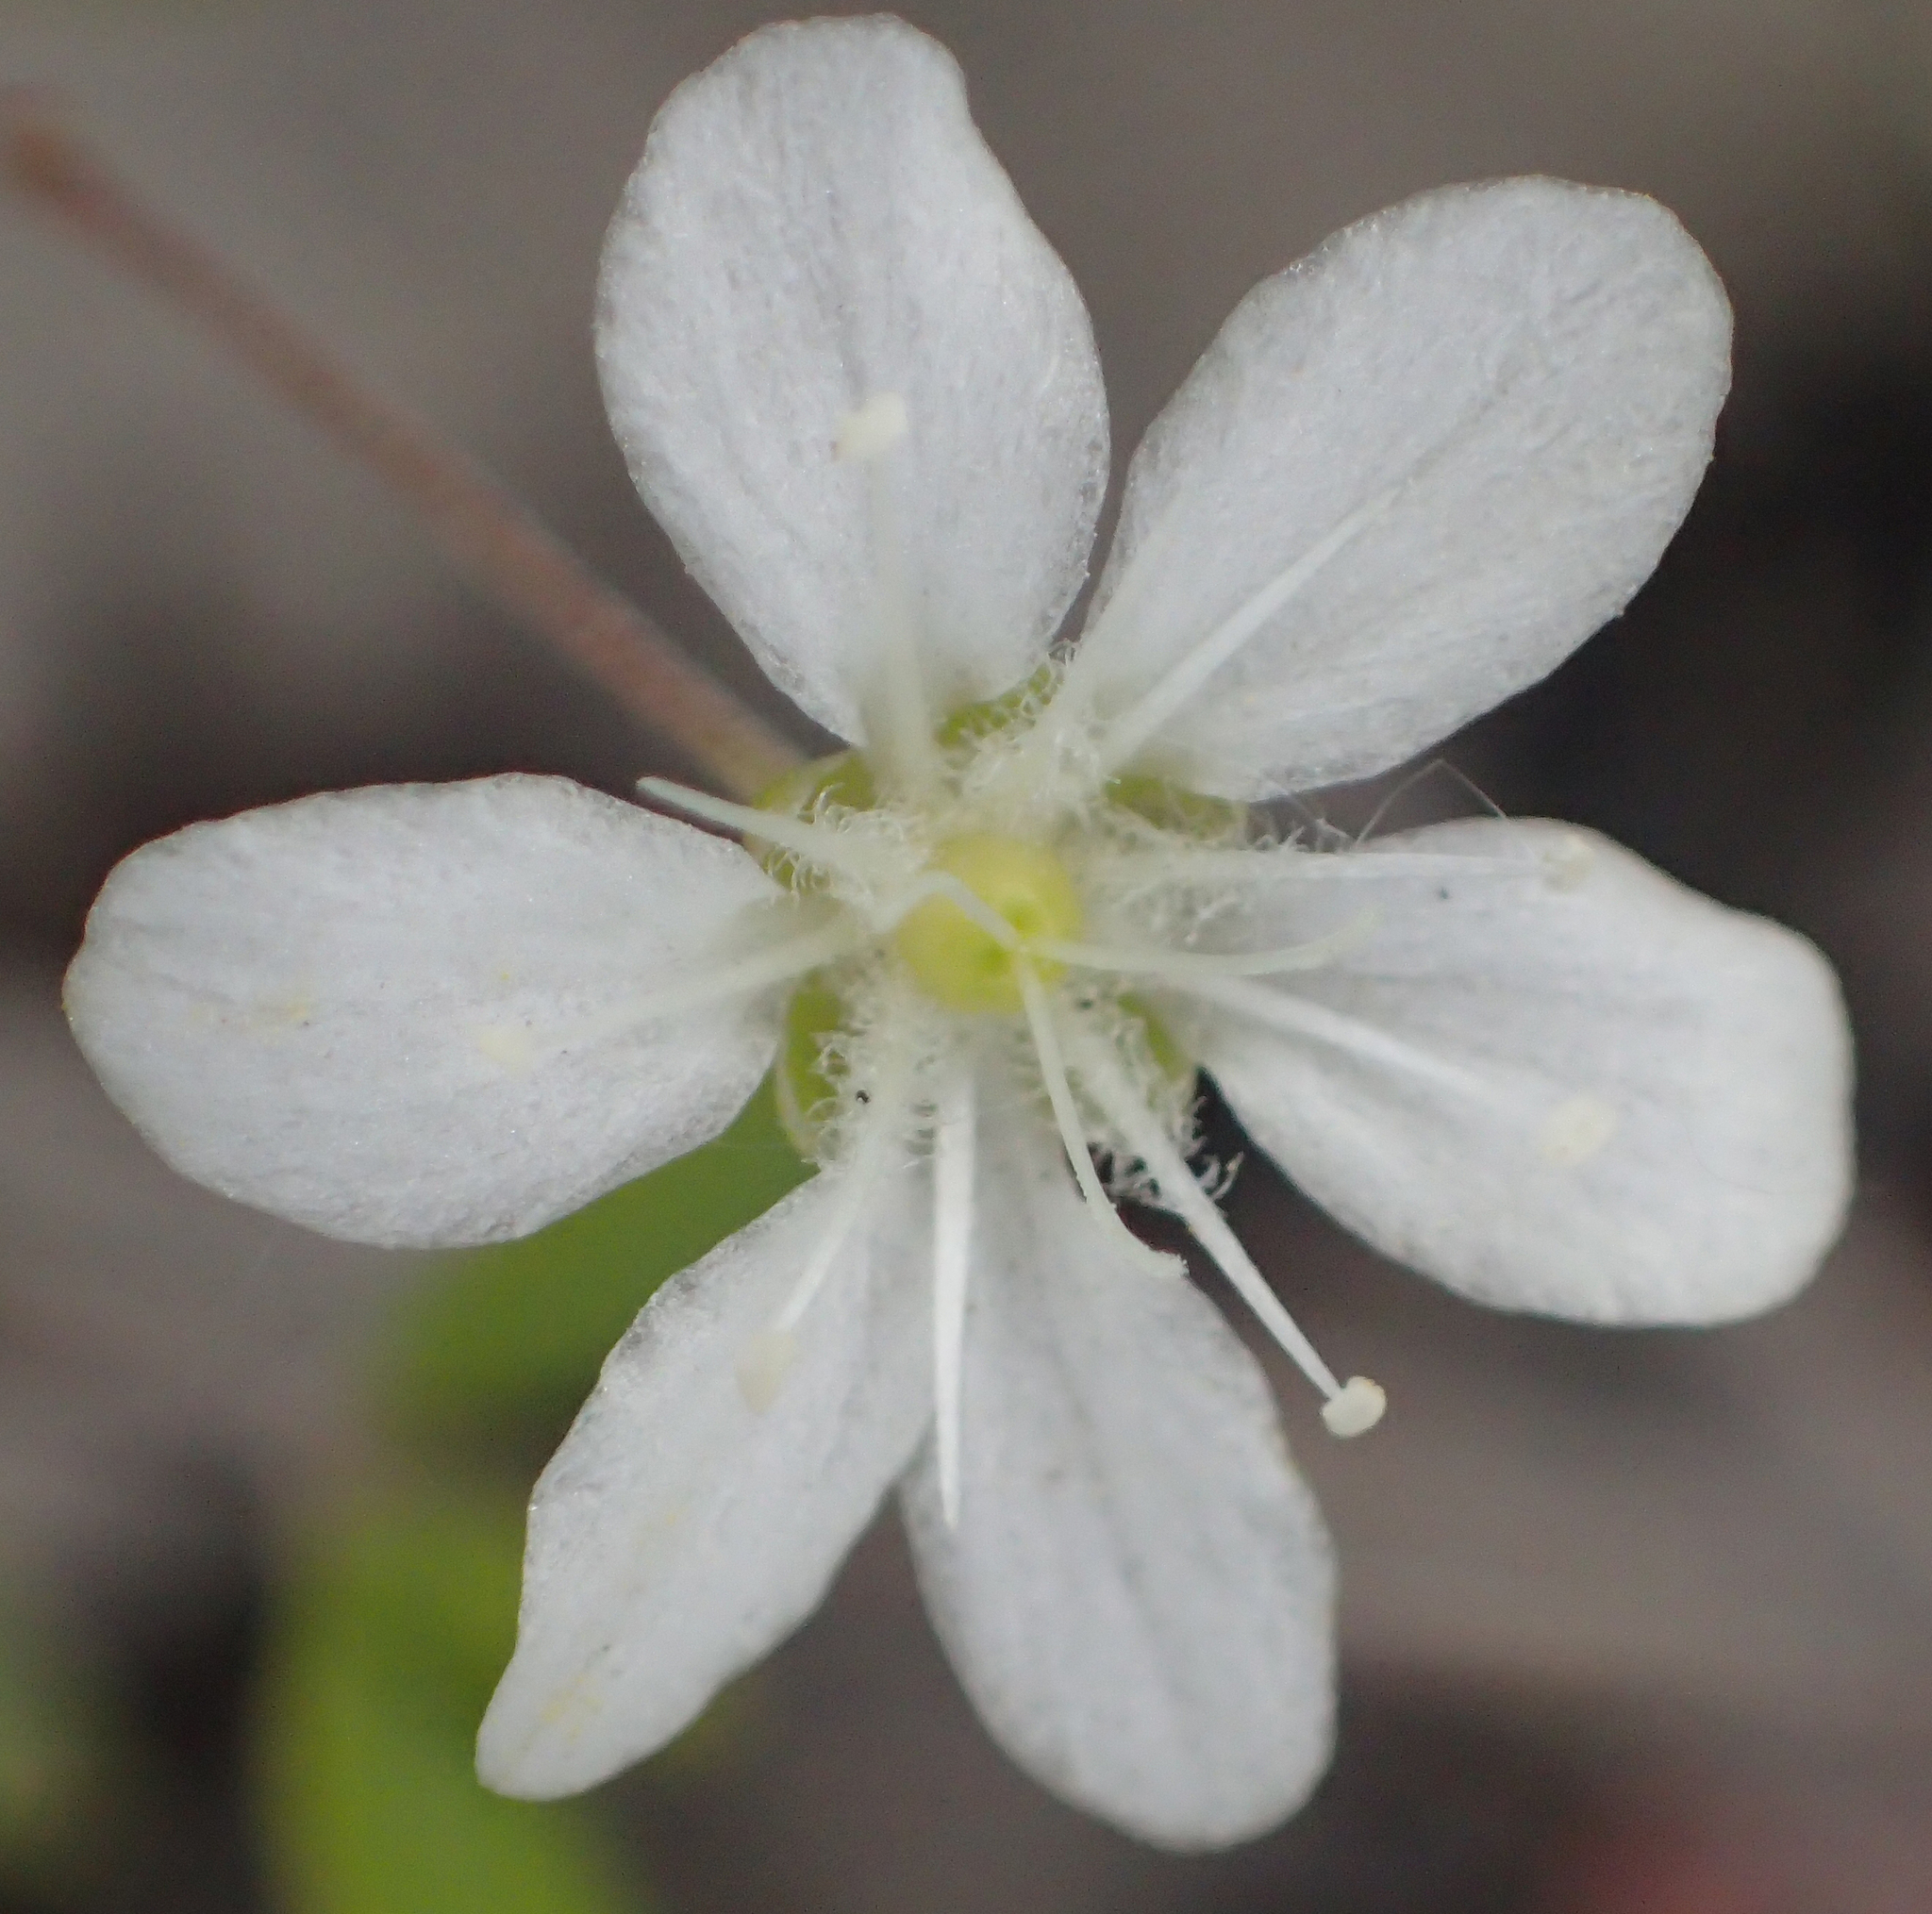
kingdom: Plantae
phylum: Tracheophyta
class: Magnoliopsida
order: Celastrales
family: Parnassiaceae
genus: Parnassia
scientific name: Parnassia fimbriata
